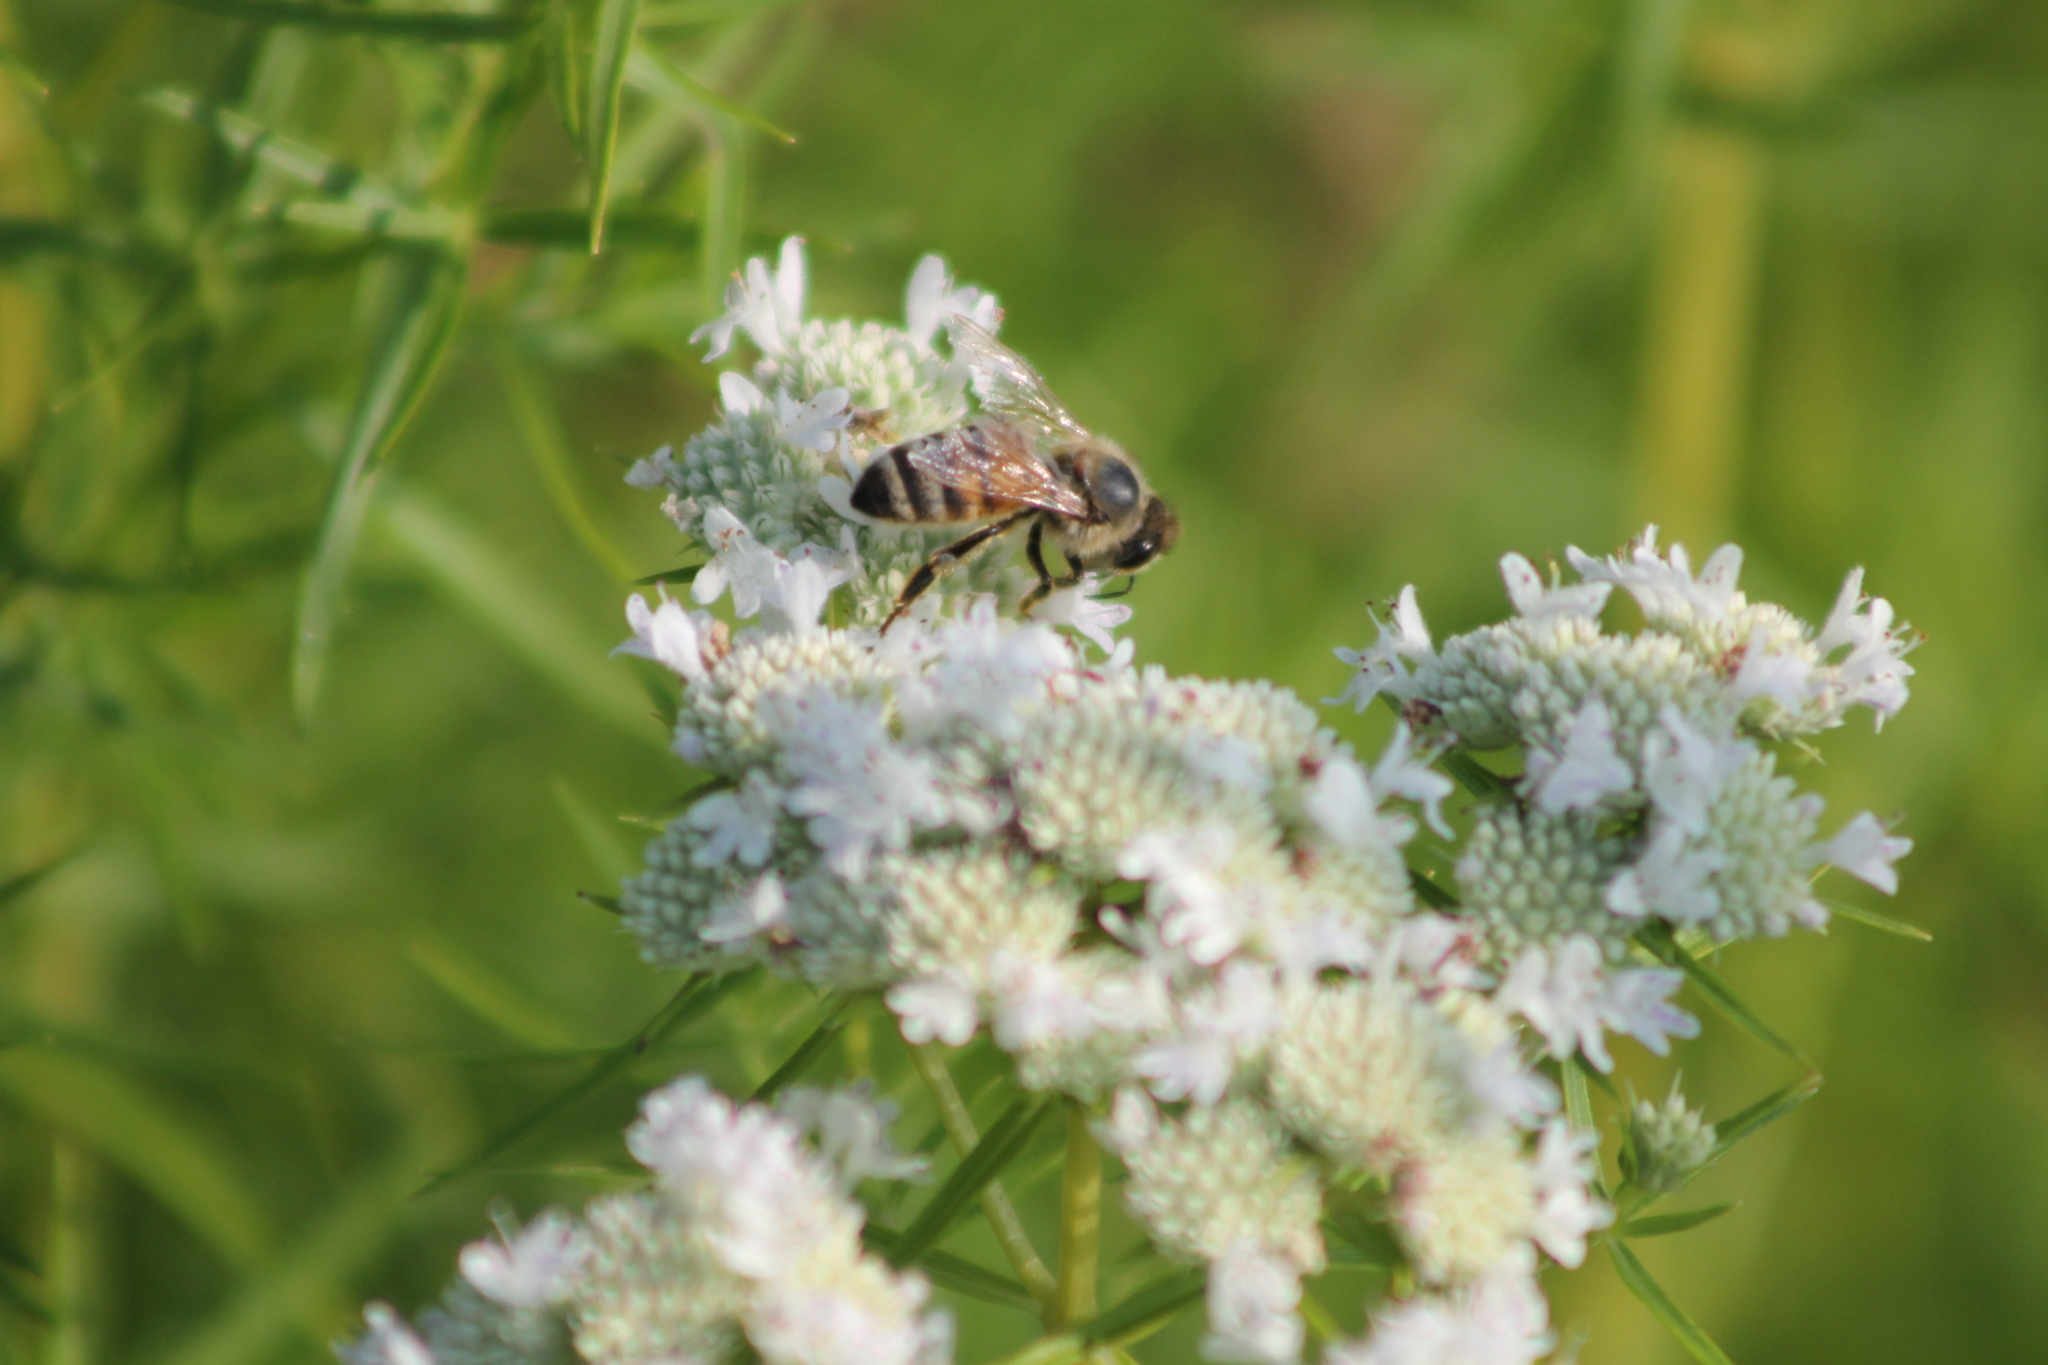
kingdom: Animalia
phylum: Arthropoda
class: Insecta
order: Hymenoptera
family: Apidae
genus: Apis
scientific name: Apis mellifera
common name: Honey bee
